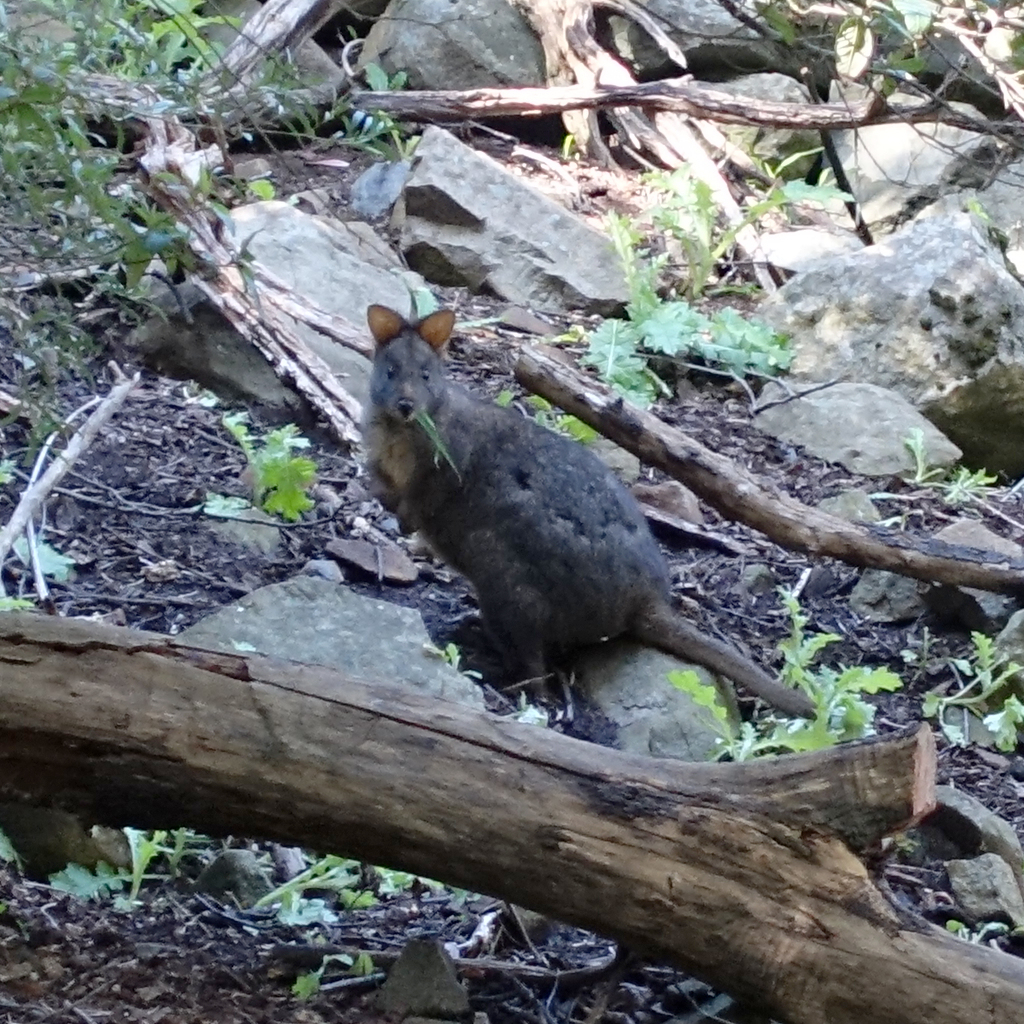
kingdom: Animalia
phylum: Chordata
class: Mammalia
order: Diprotodontia
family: Macropodidae
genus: Thylogale
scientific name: Thylogale billardierii
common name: Tasmanian pademelon
